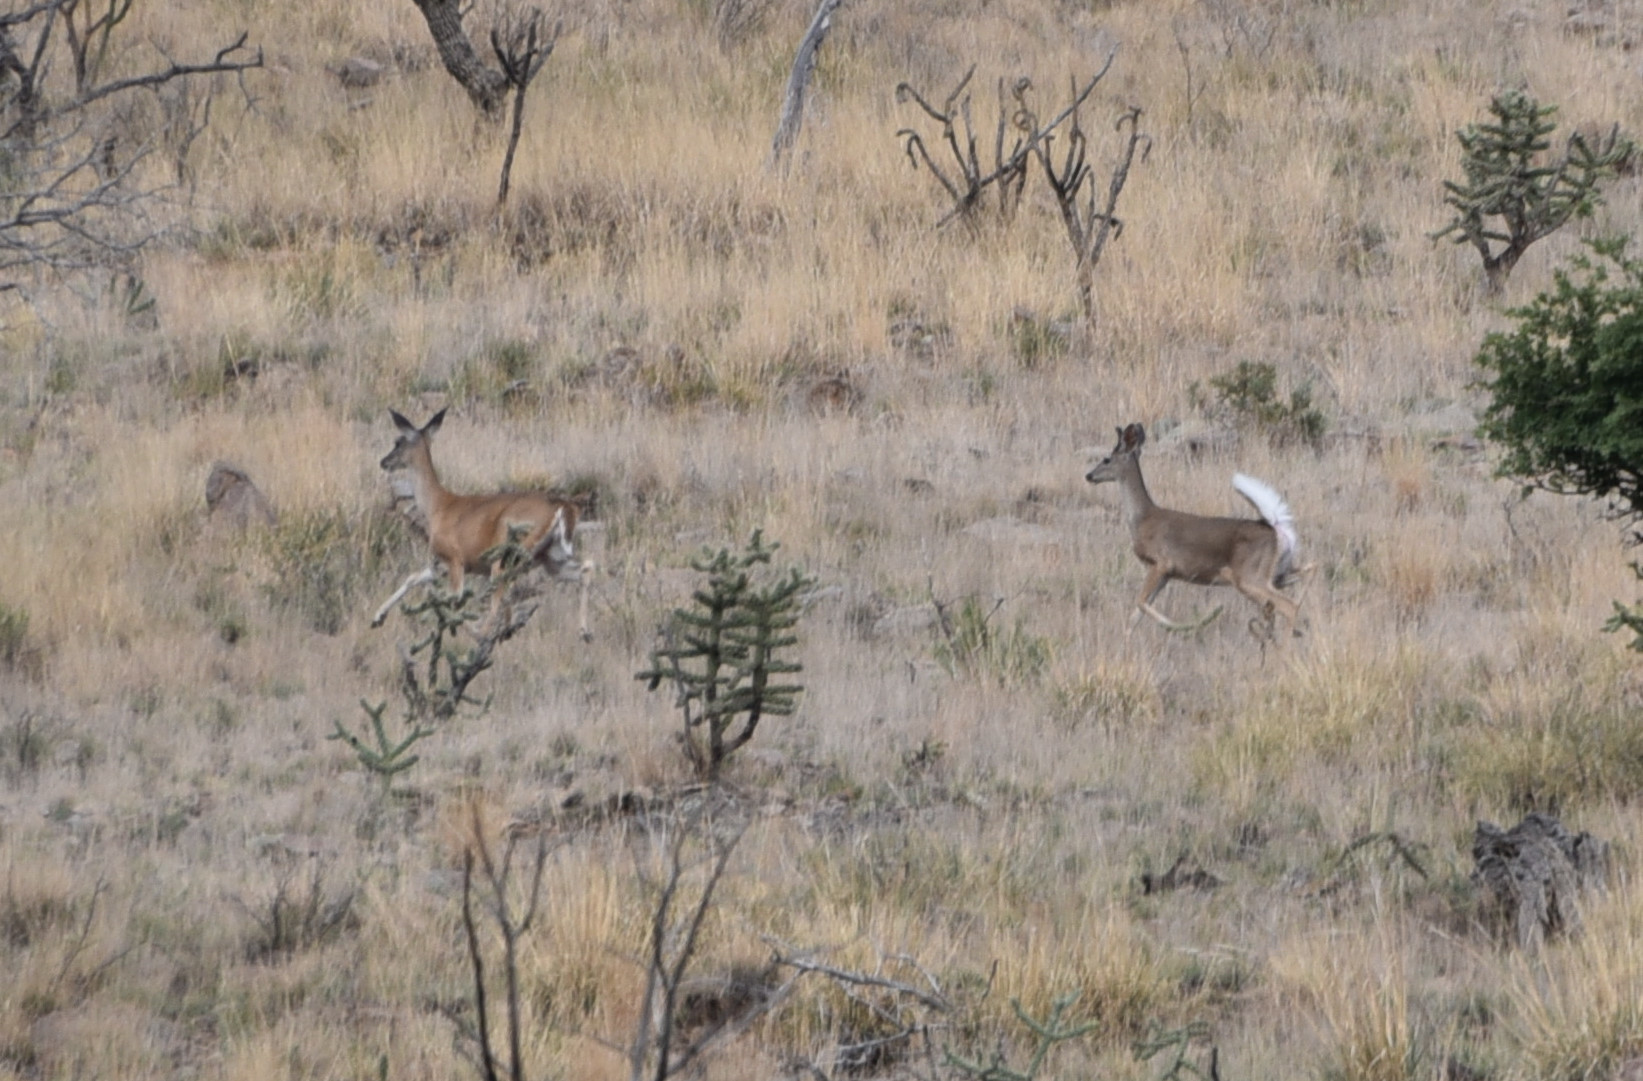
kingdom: Animalia
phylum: Chordata
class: Mammalia
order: Artiodactyla
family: Cervidae
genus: Odocoileus
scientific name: Odocoileus virginianus
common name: White-tailed deer
